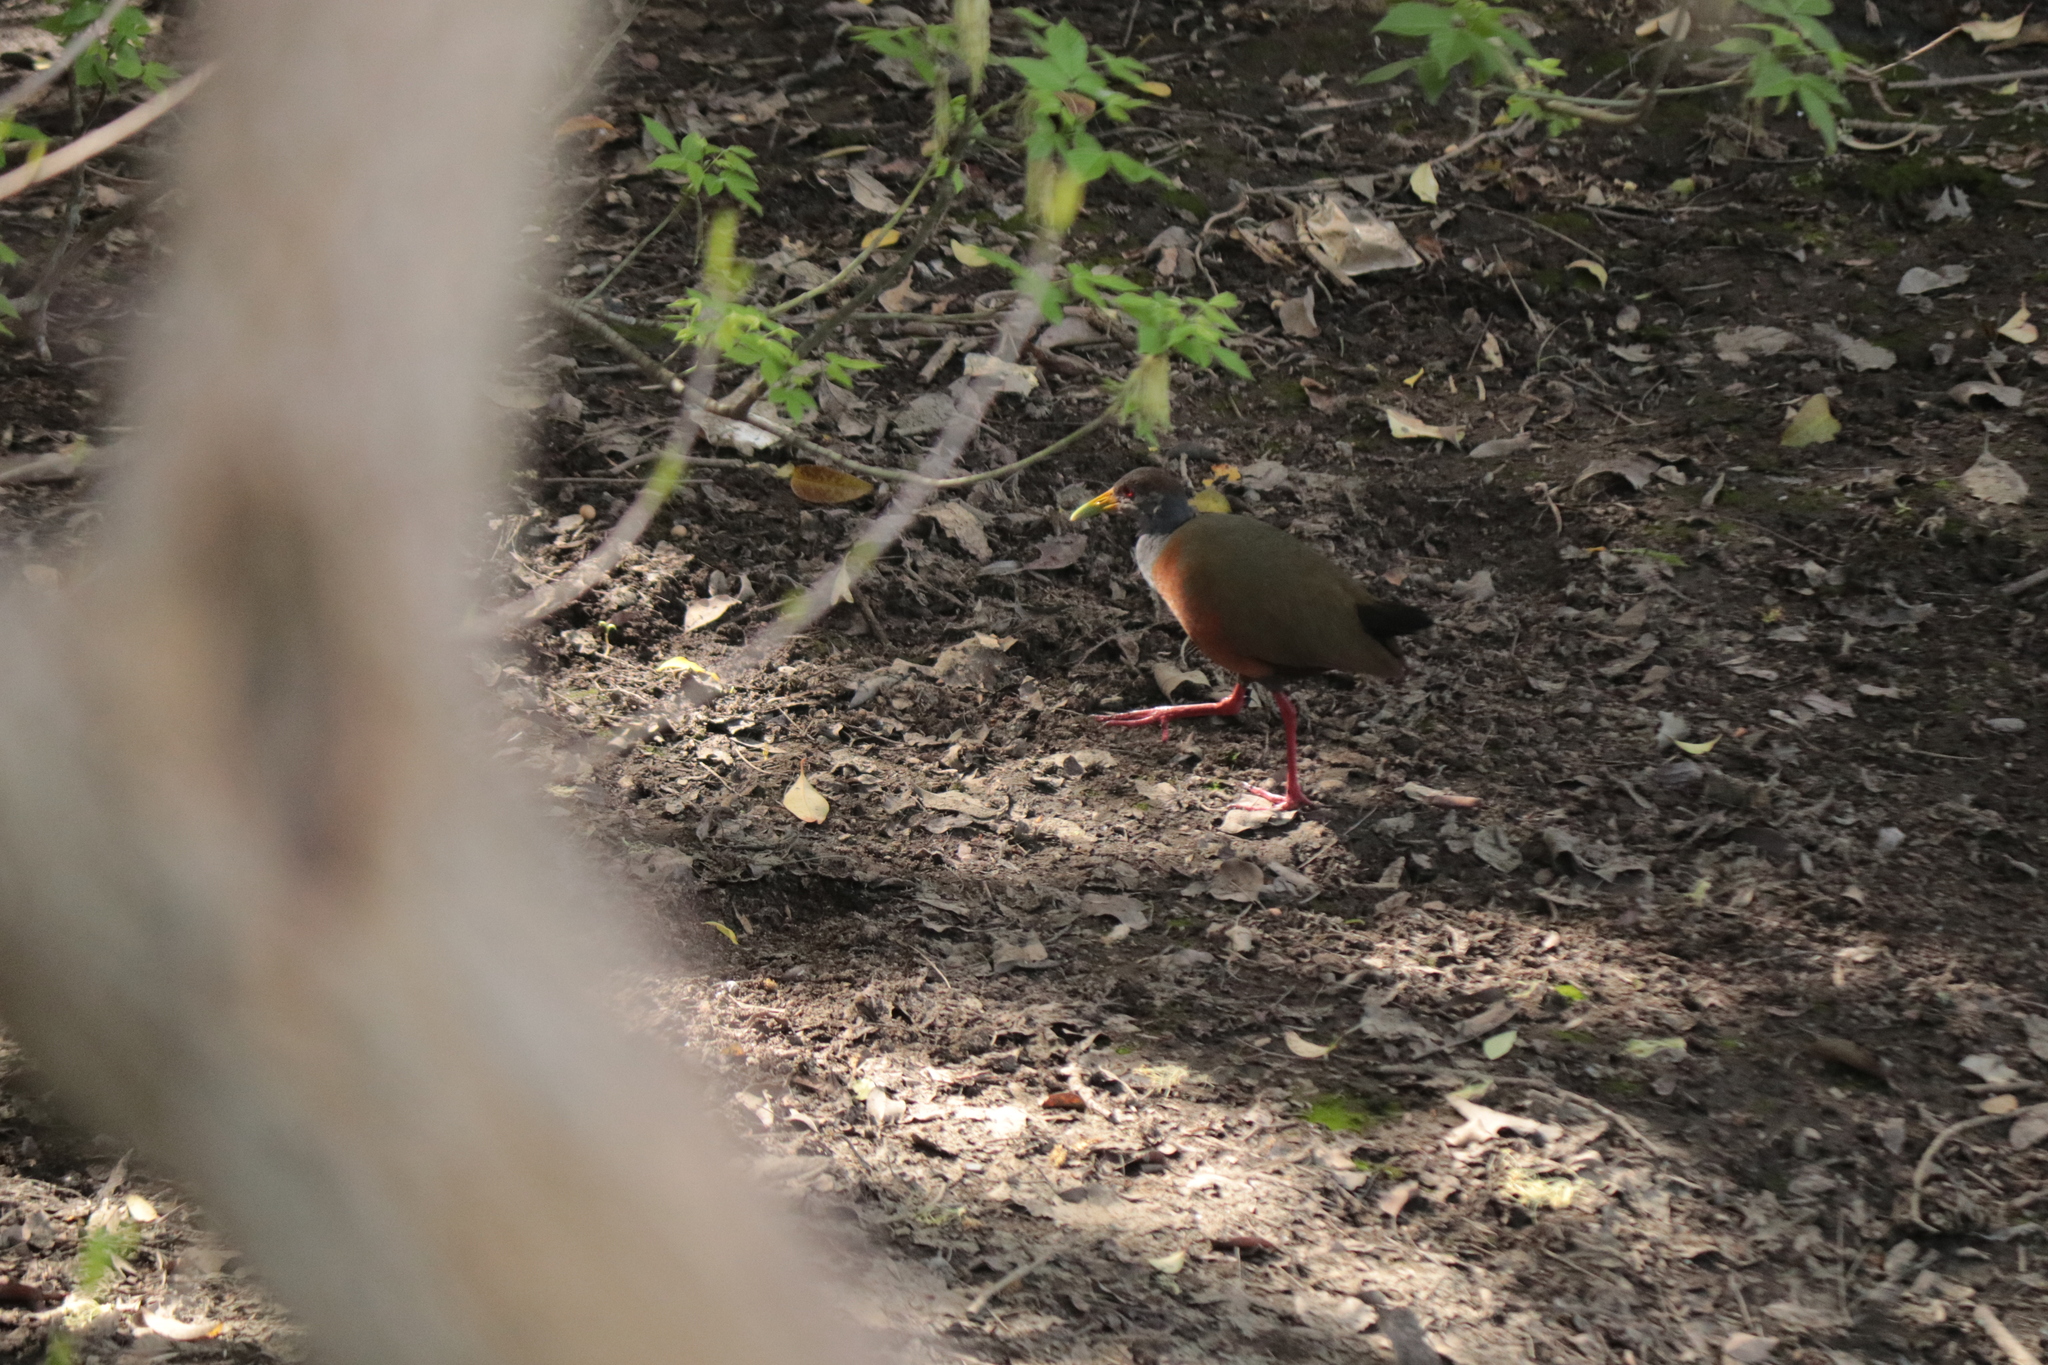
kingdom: Animalia
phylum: Chordata
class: Aves
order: Gruiformes
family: Rallidae
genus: Aramides
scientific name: Aramides cajanea
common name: Gray-necked wood-rail
